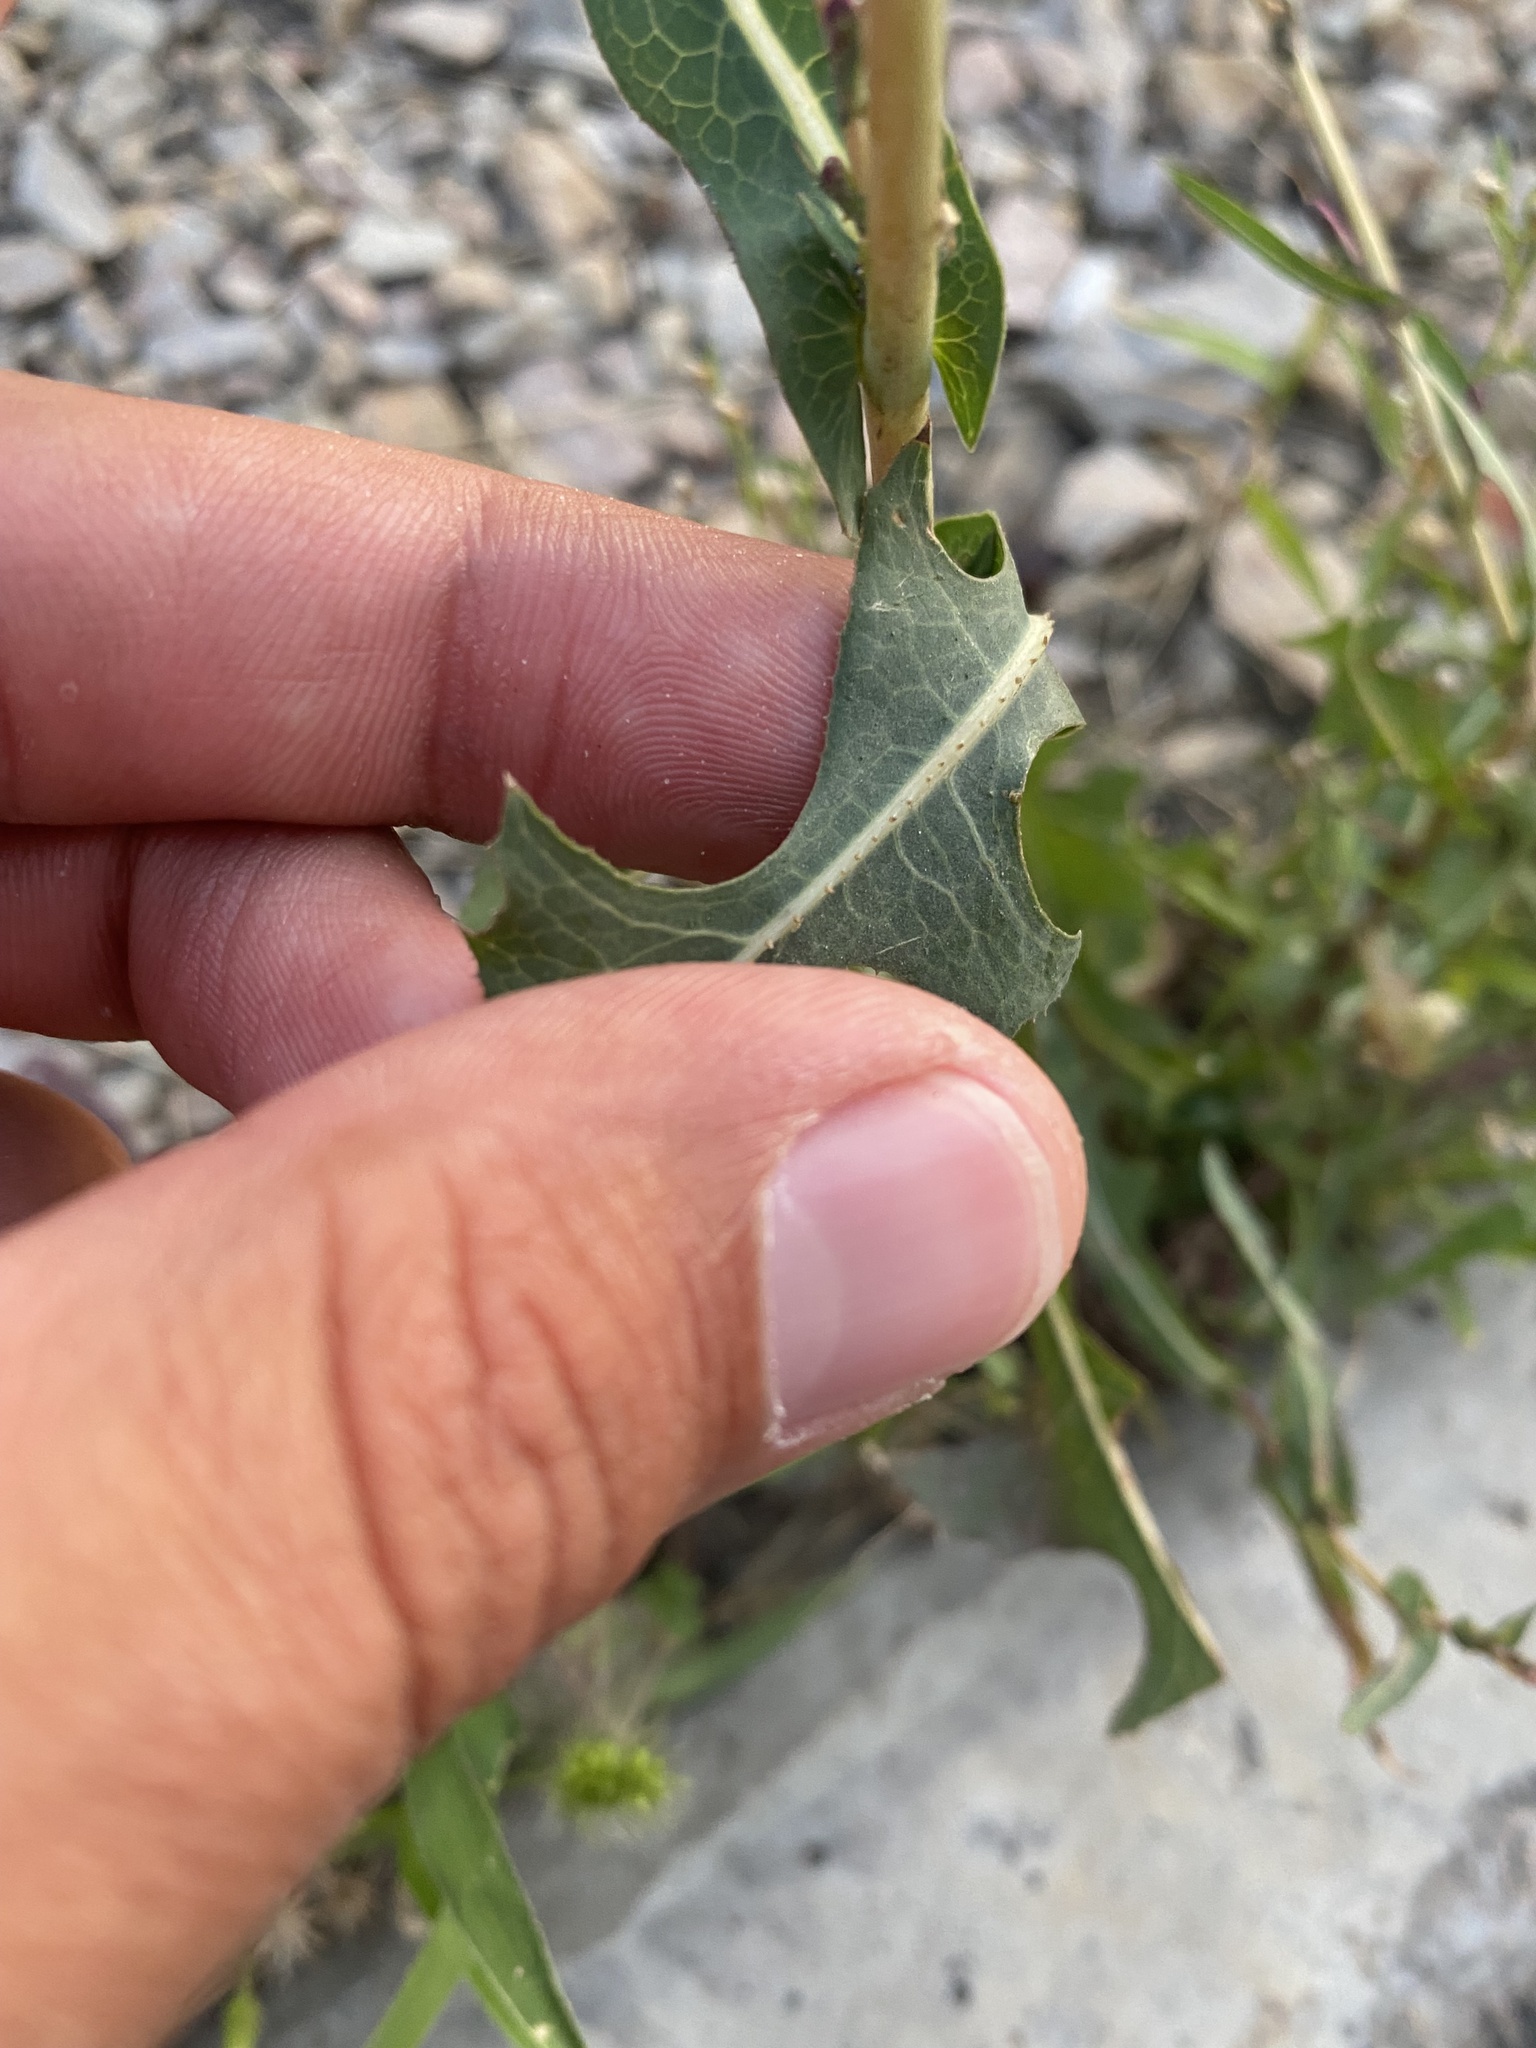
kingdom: Plantae
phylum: Tracheophyta
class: Magnoliopsida
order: Asterales
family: Asteraceae
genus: Lactuca
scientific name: Lactuca serriola
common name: Prickly lettuce
